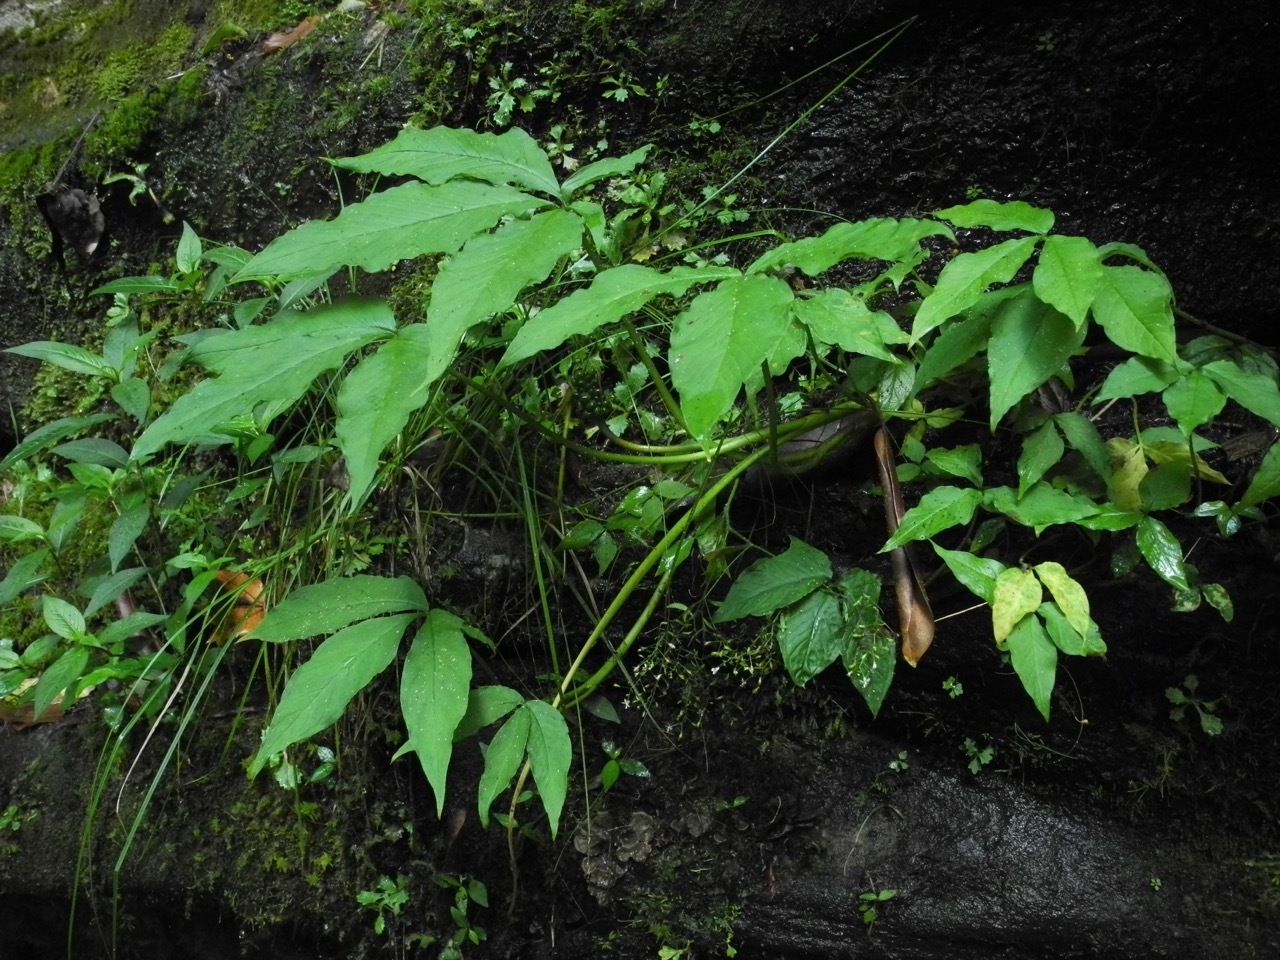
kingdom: Plantae
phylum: Tracheophyta
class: Liliopsida
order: Alismatales
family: Araceae
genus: Arisaema
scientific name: Arisaema quinatum
